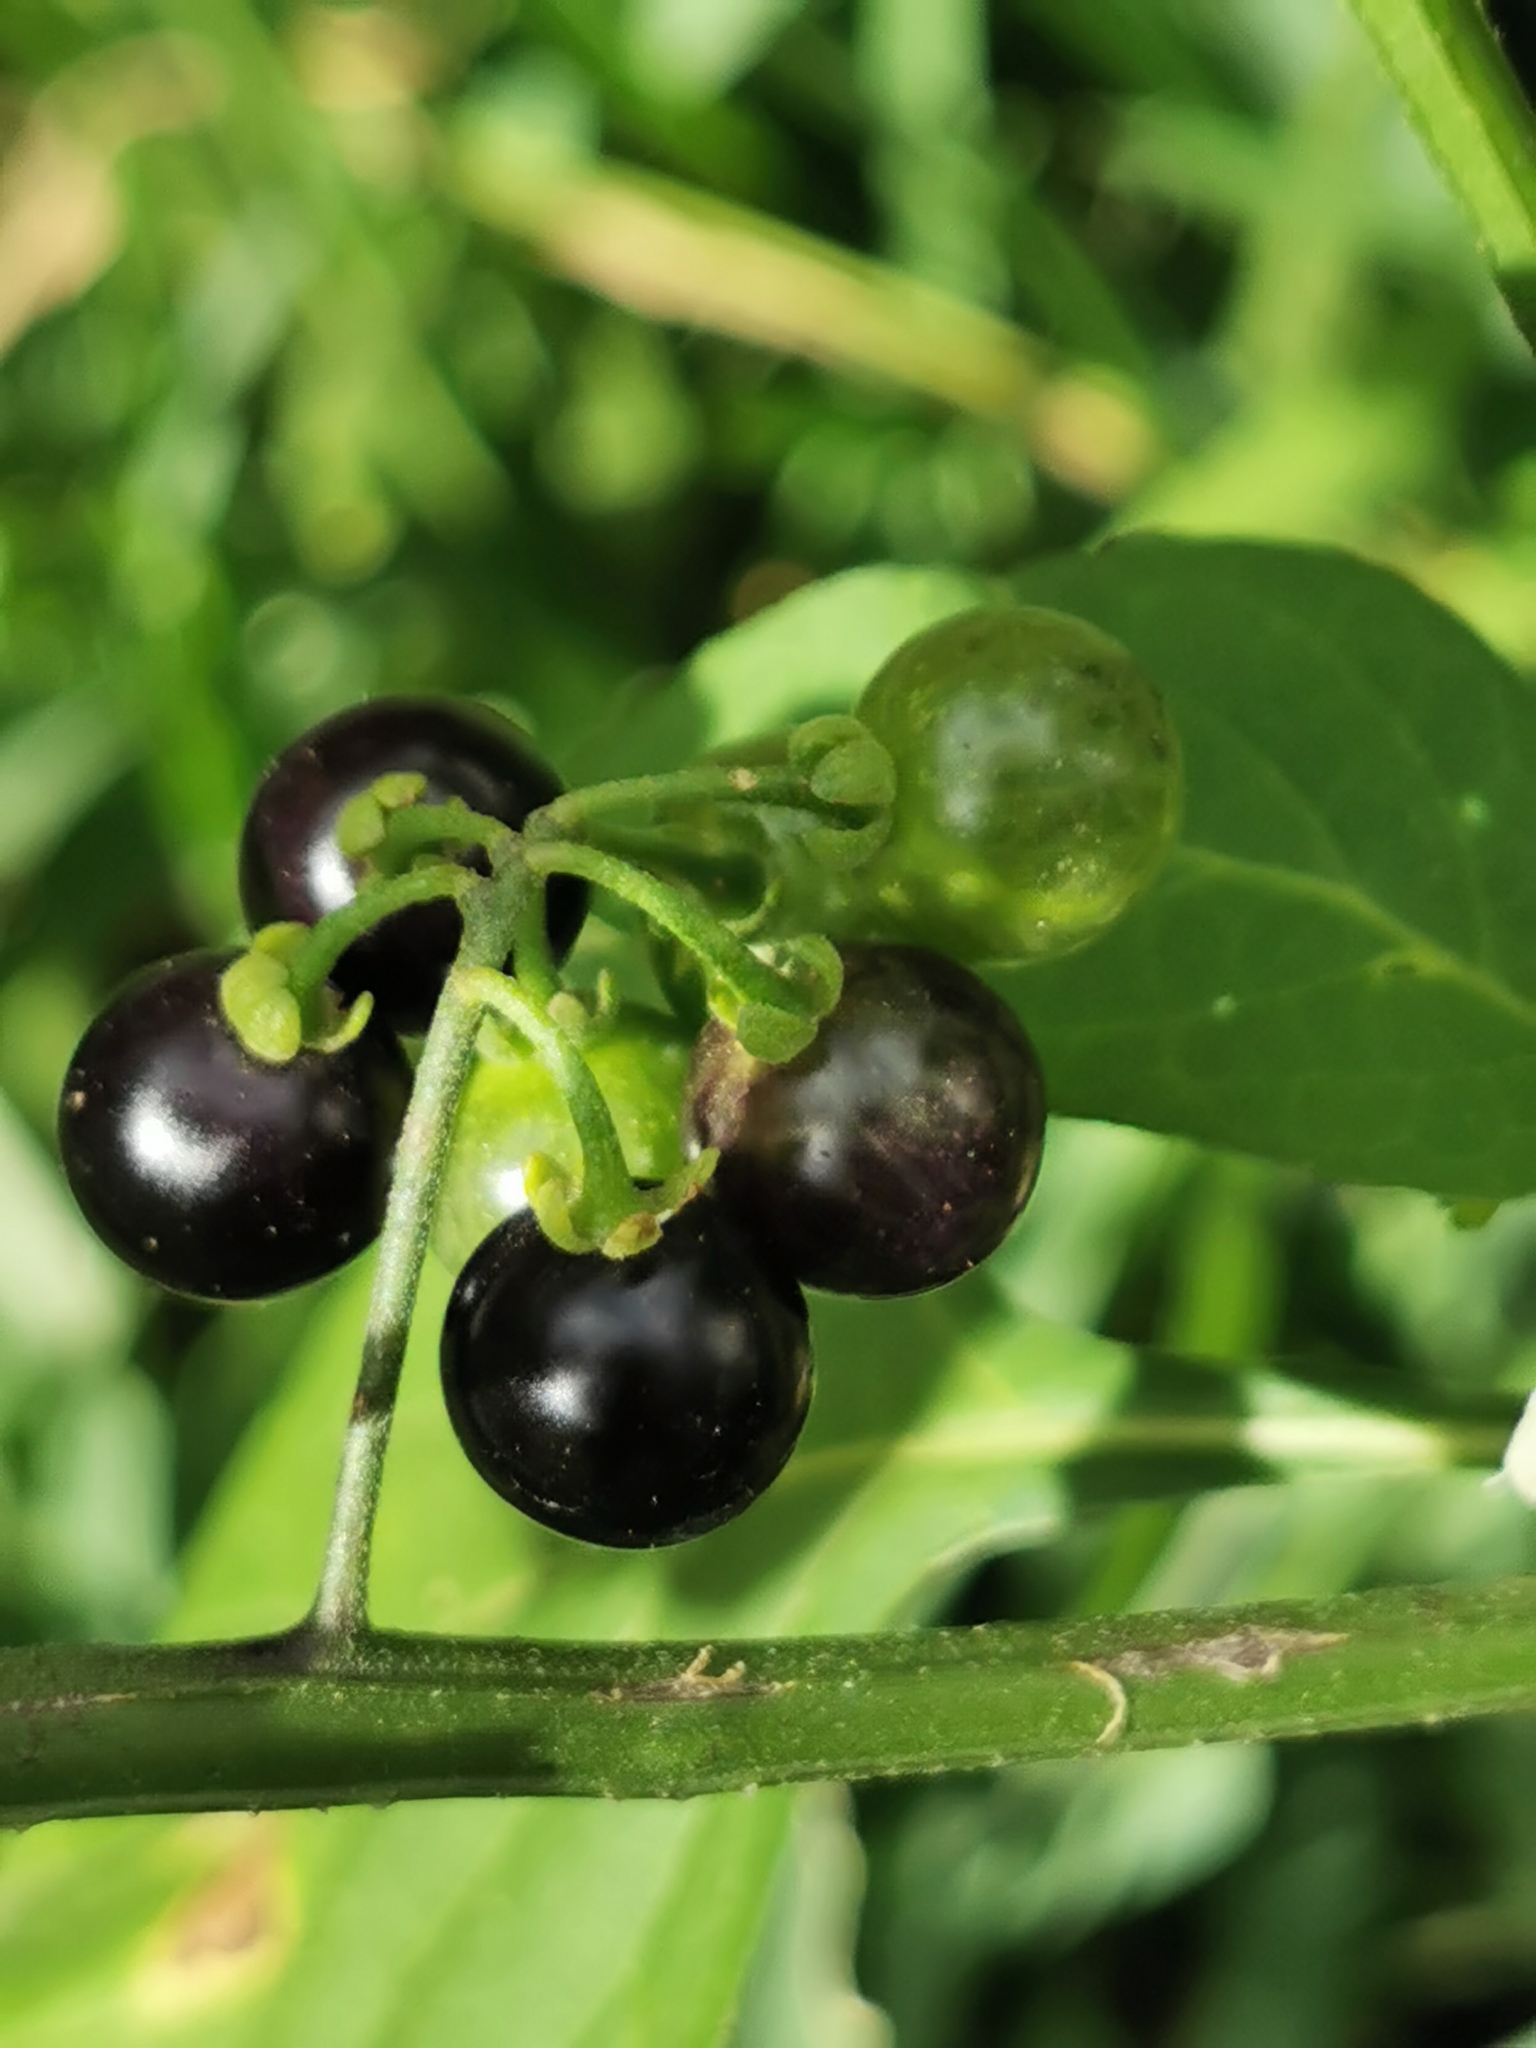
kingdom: Plantae
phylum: Tracheophyta
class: Magnoliopsida
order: Solanales
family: Solanaceae
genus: Solanum
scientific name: Solanum americanum
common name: American black nightshade
